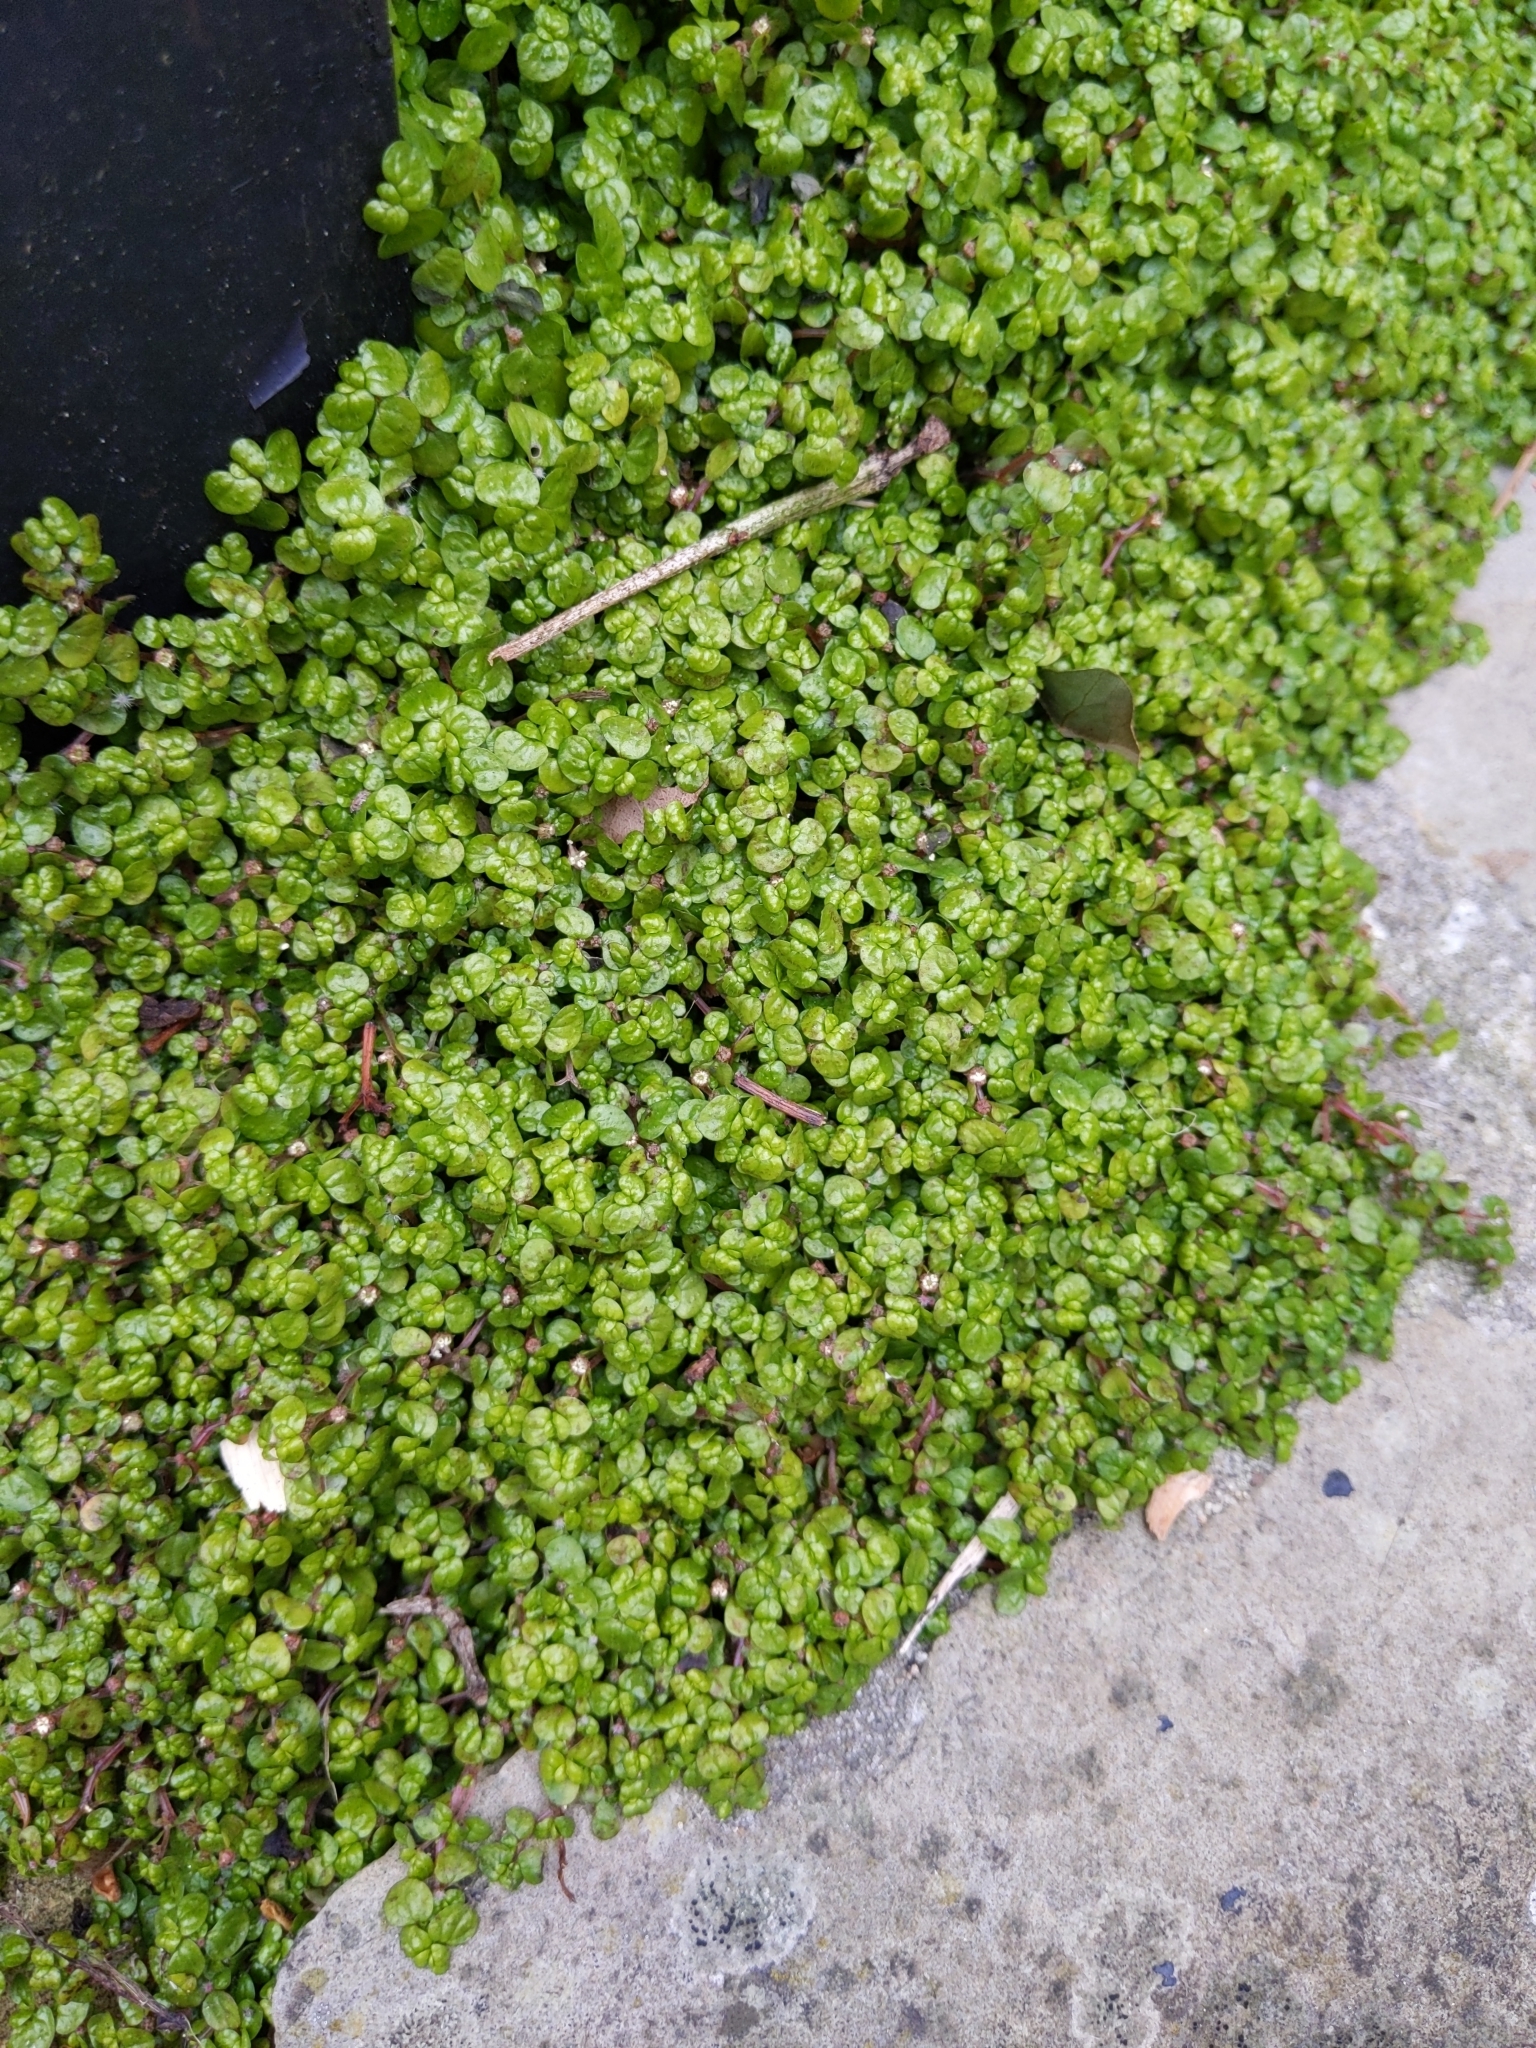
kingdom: Plantae
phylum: Tracheophyta
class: Magnoliopsida
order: Rosales
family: Urticaceae
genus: Soleirolia
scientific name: Soleirolia soleirolii
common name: Mind-your-own-business
